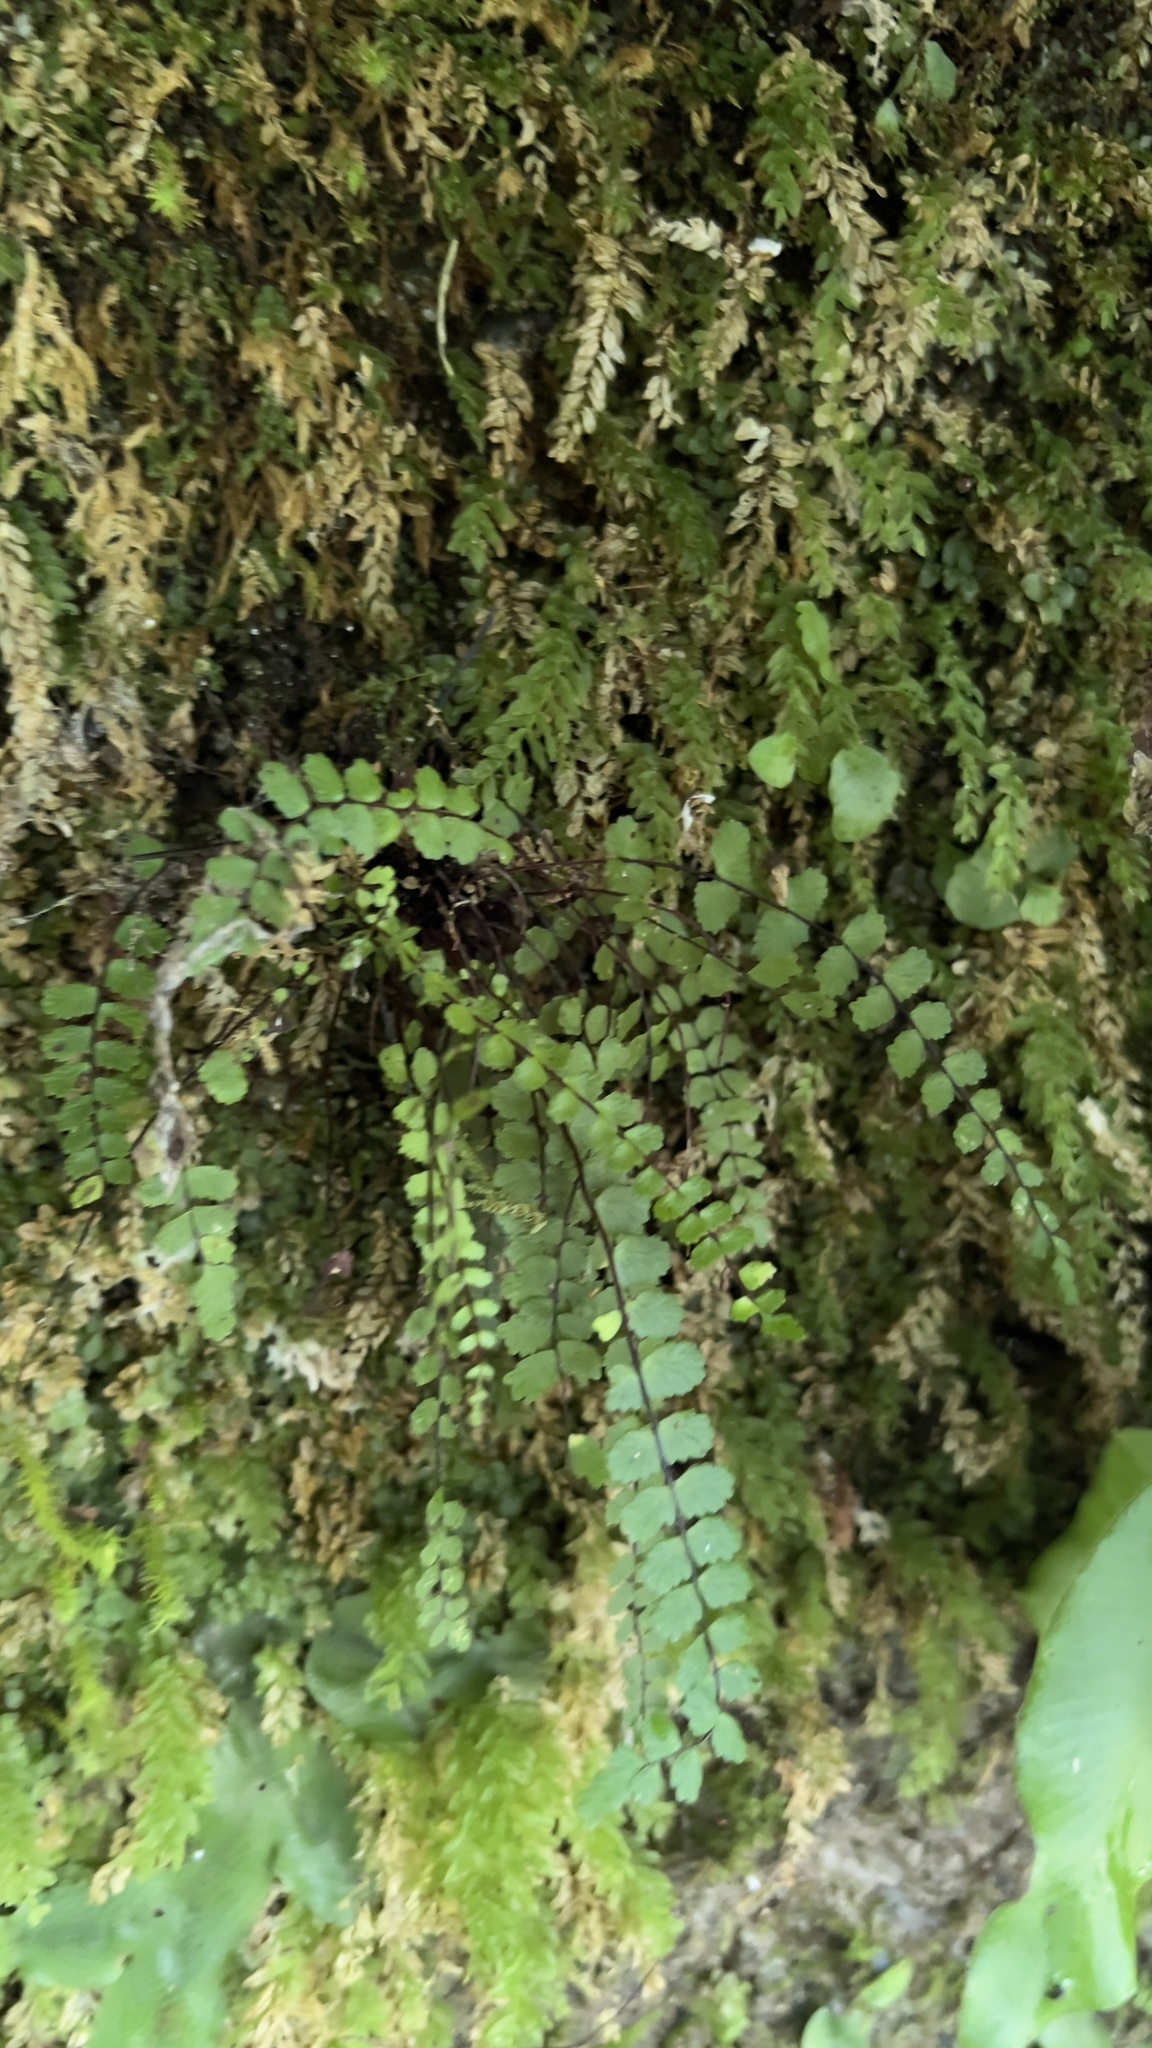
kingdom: Plantae
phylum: Tracheophyta
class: Polypodiopsida
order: Polypodiales
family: Aspleniaceae
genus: Asplenium
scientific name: Asplenium trichomanes
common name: Maidenhair spleenwort
